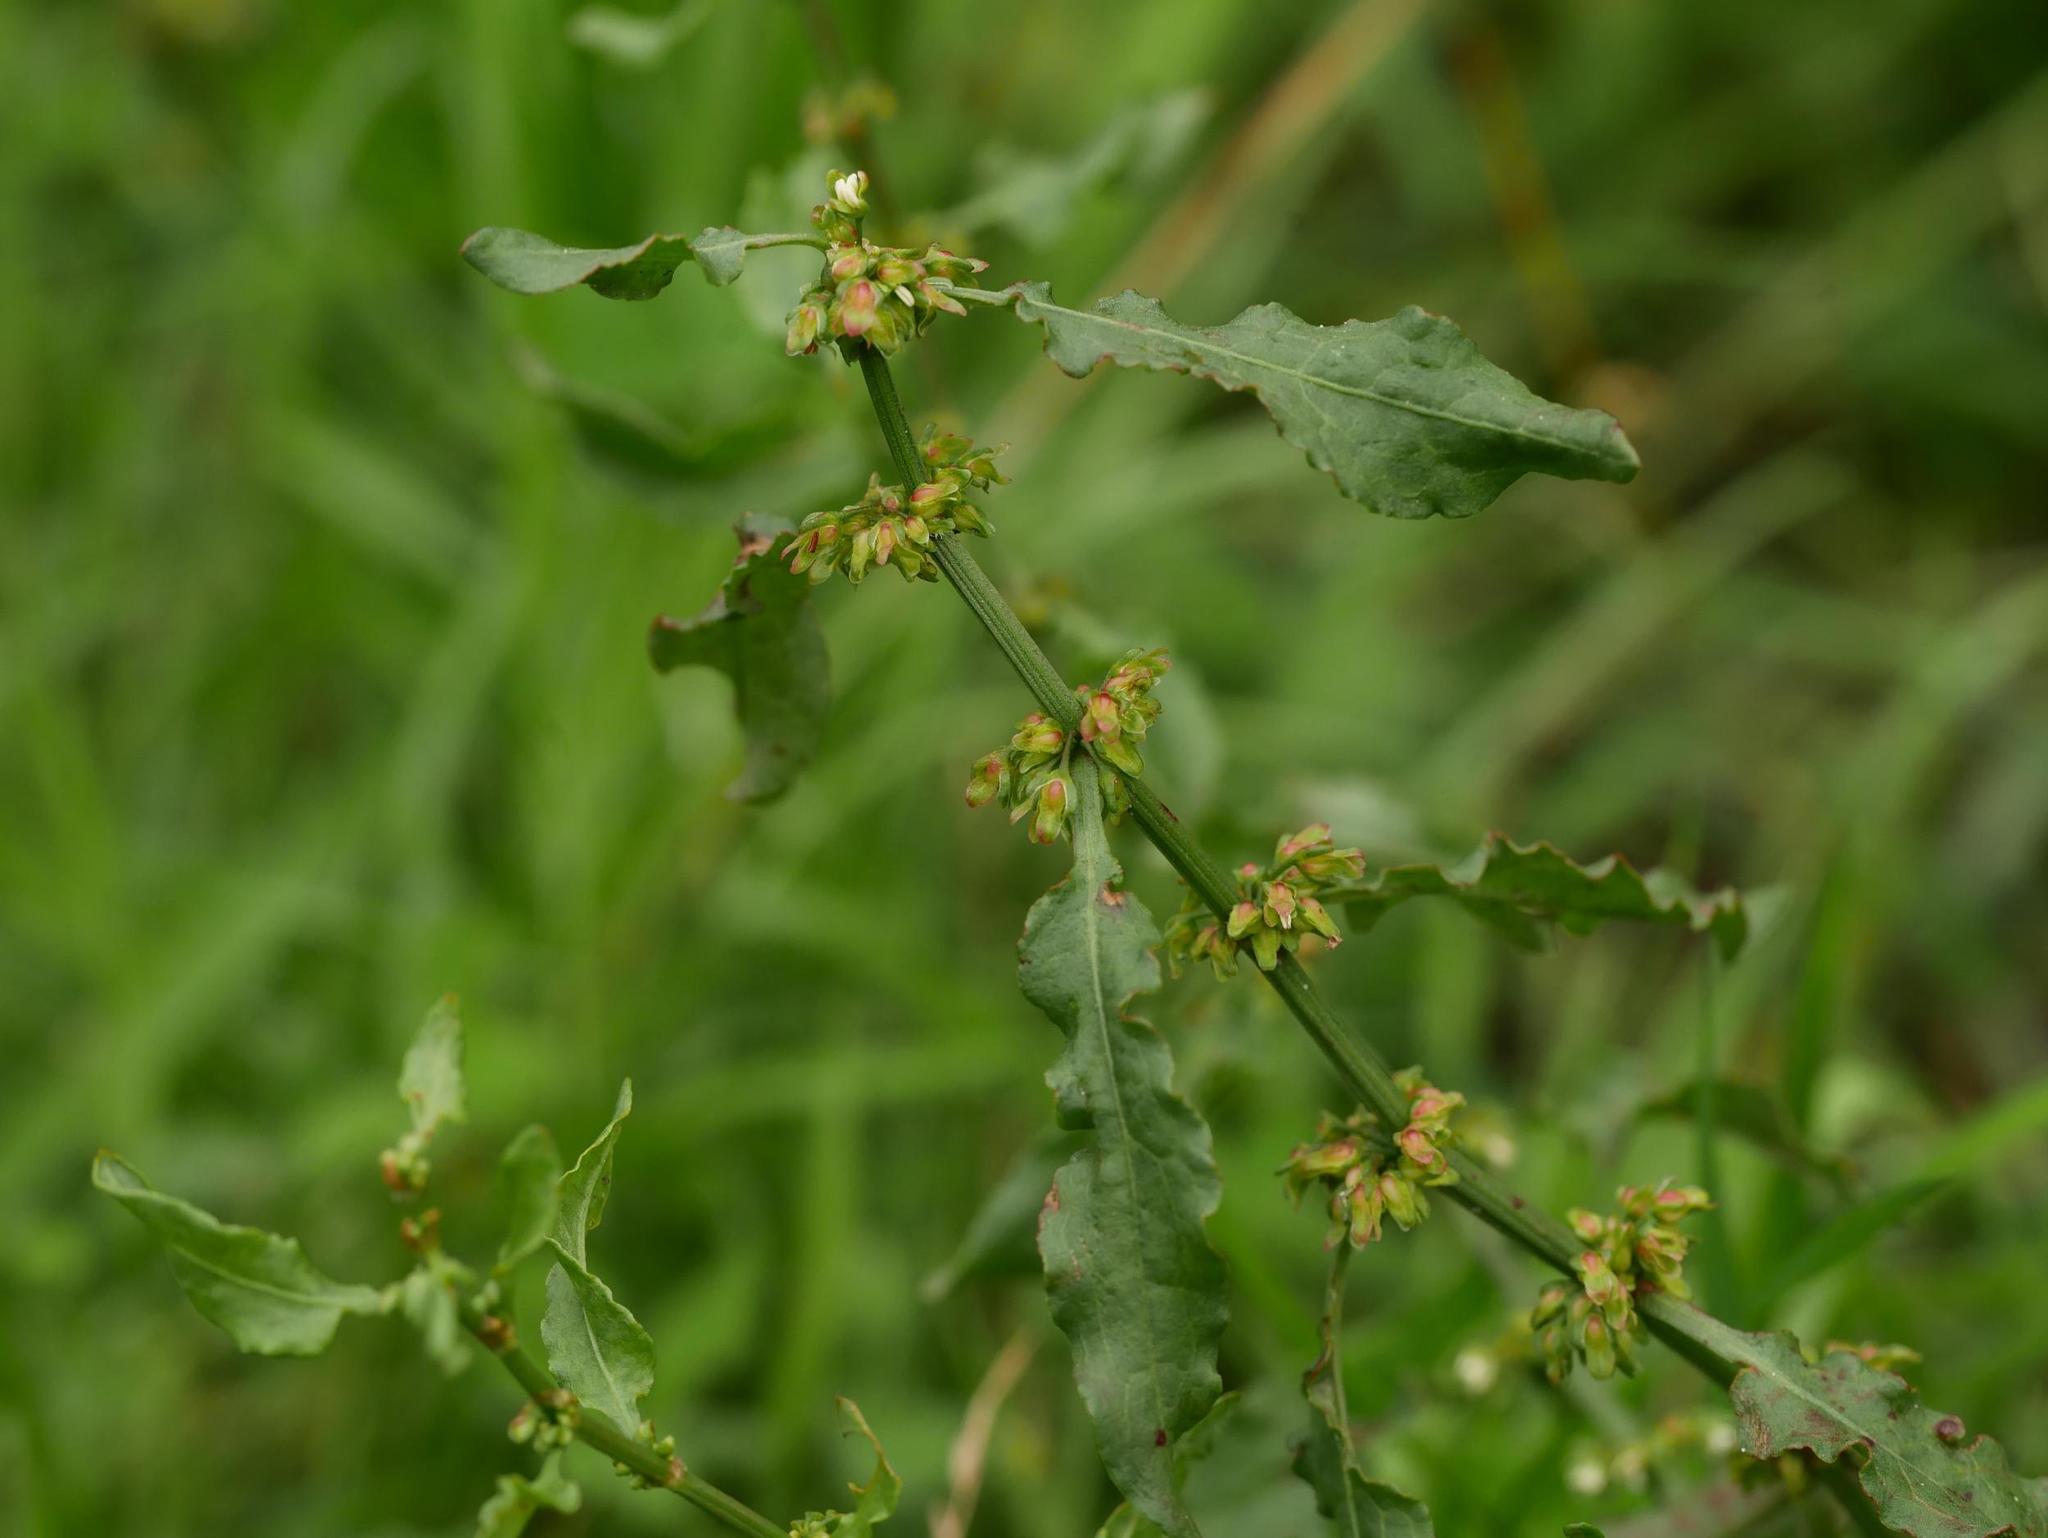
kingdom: Plantae
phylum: Tracheophyta
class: Magnoliopsida
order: Caryophyllales
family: Polygonaceae
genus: Rumex
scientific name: Rumex conglomeratus
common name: Clustered dock
